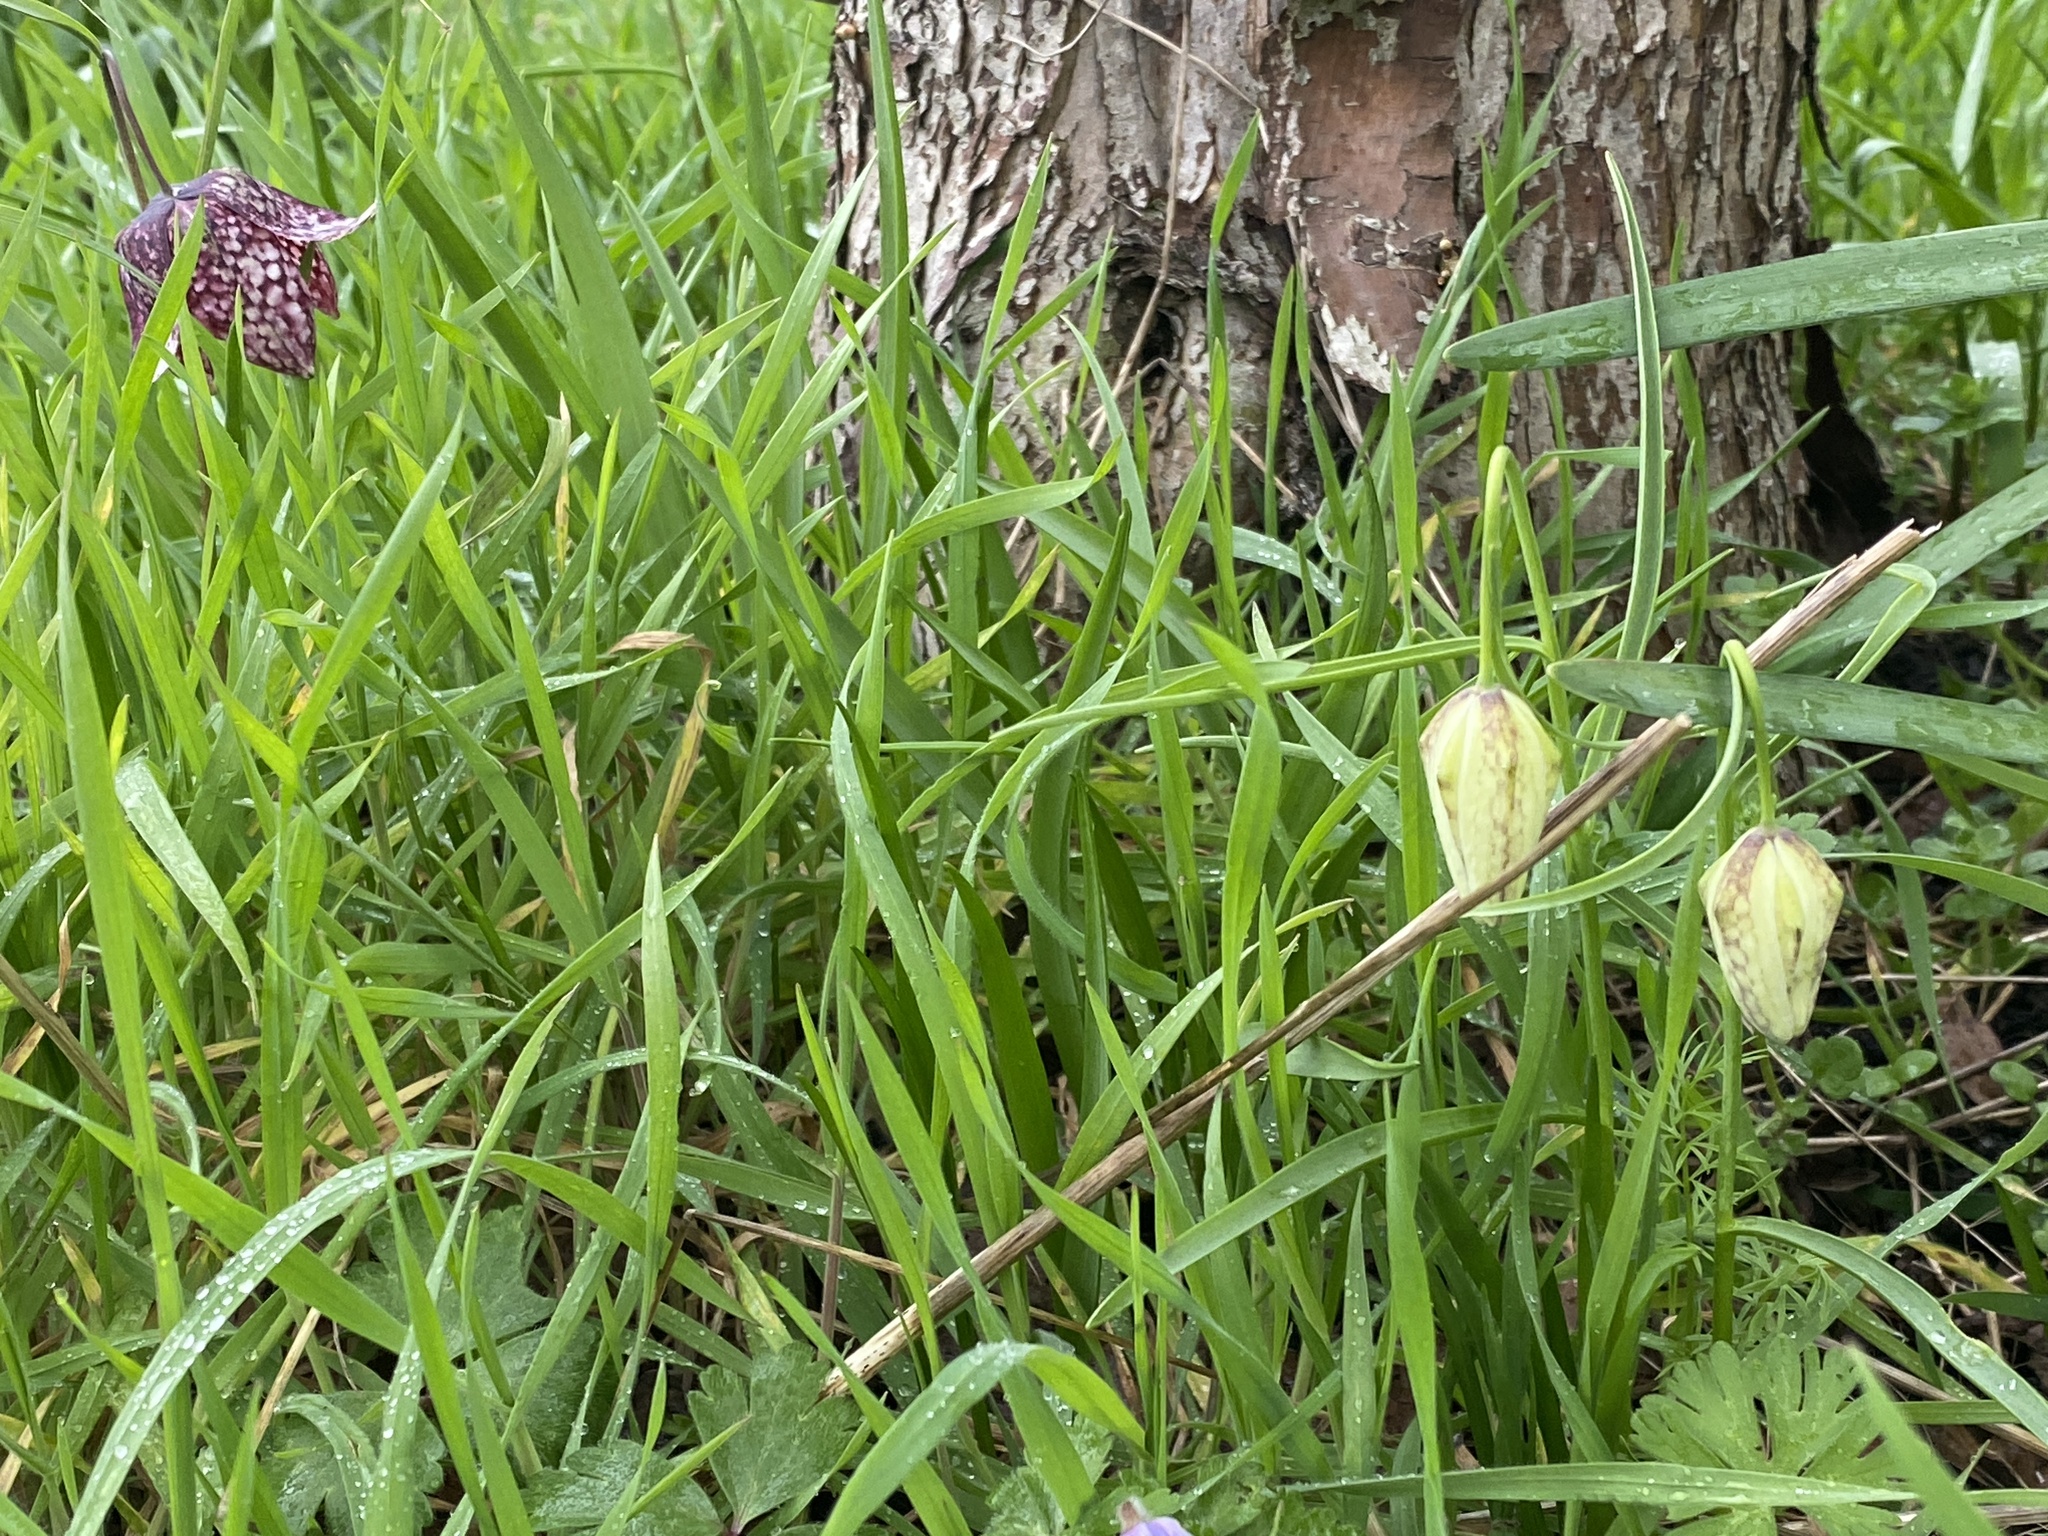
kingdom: Plantae
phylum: Tracheophyta
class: Liliopsida
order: Liliales
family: Liliaceae
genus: Fritillaria
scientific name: Fritillaria meleagris
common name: Fritillary
